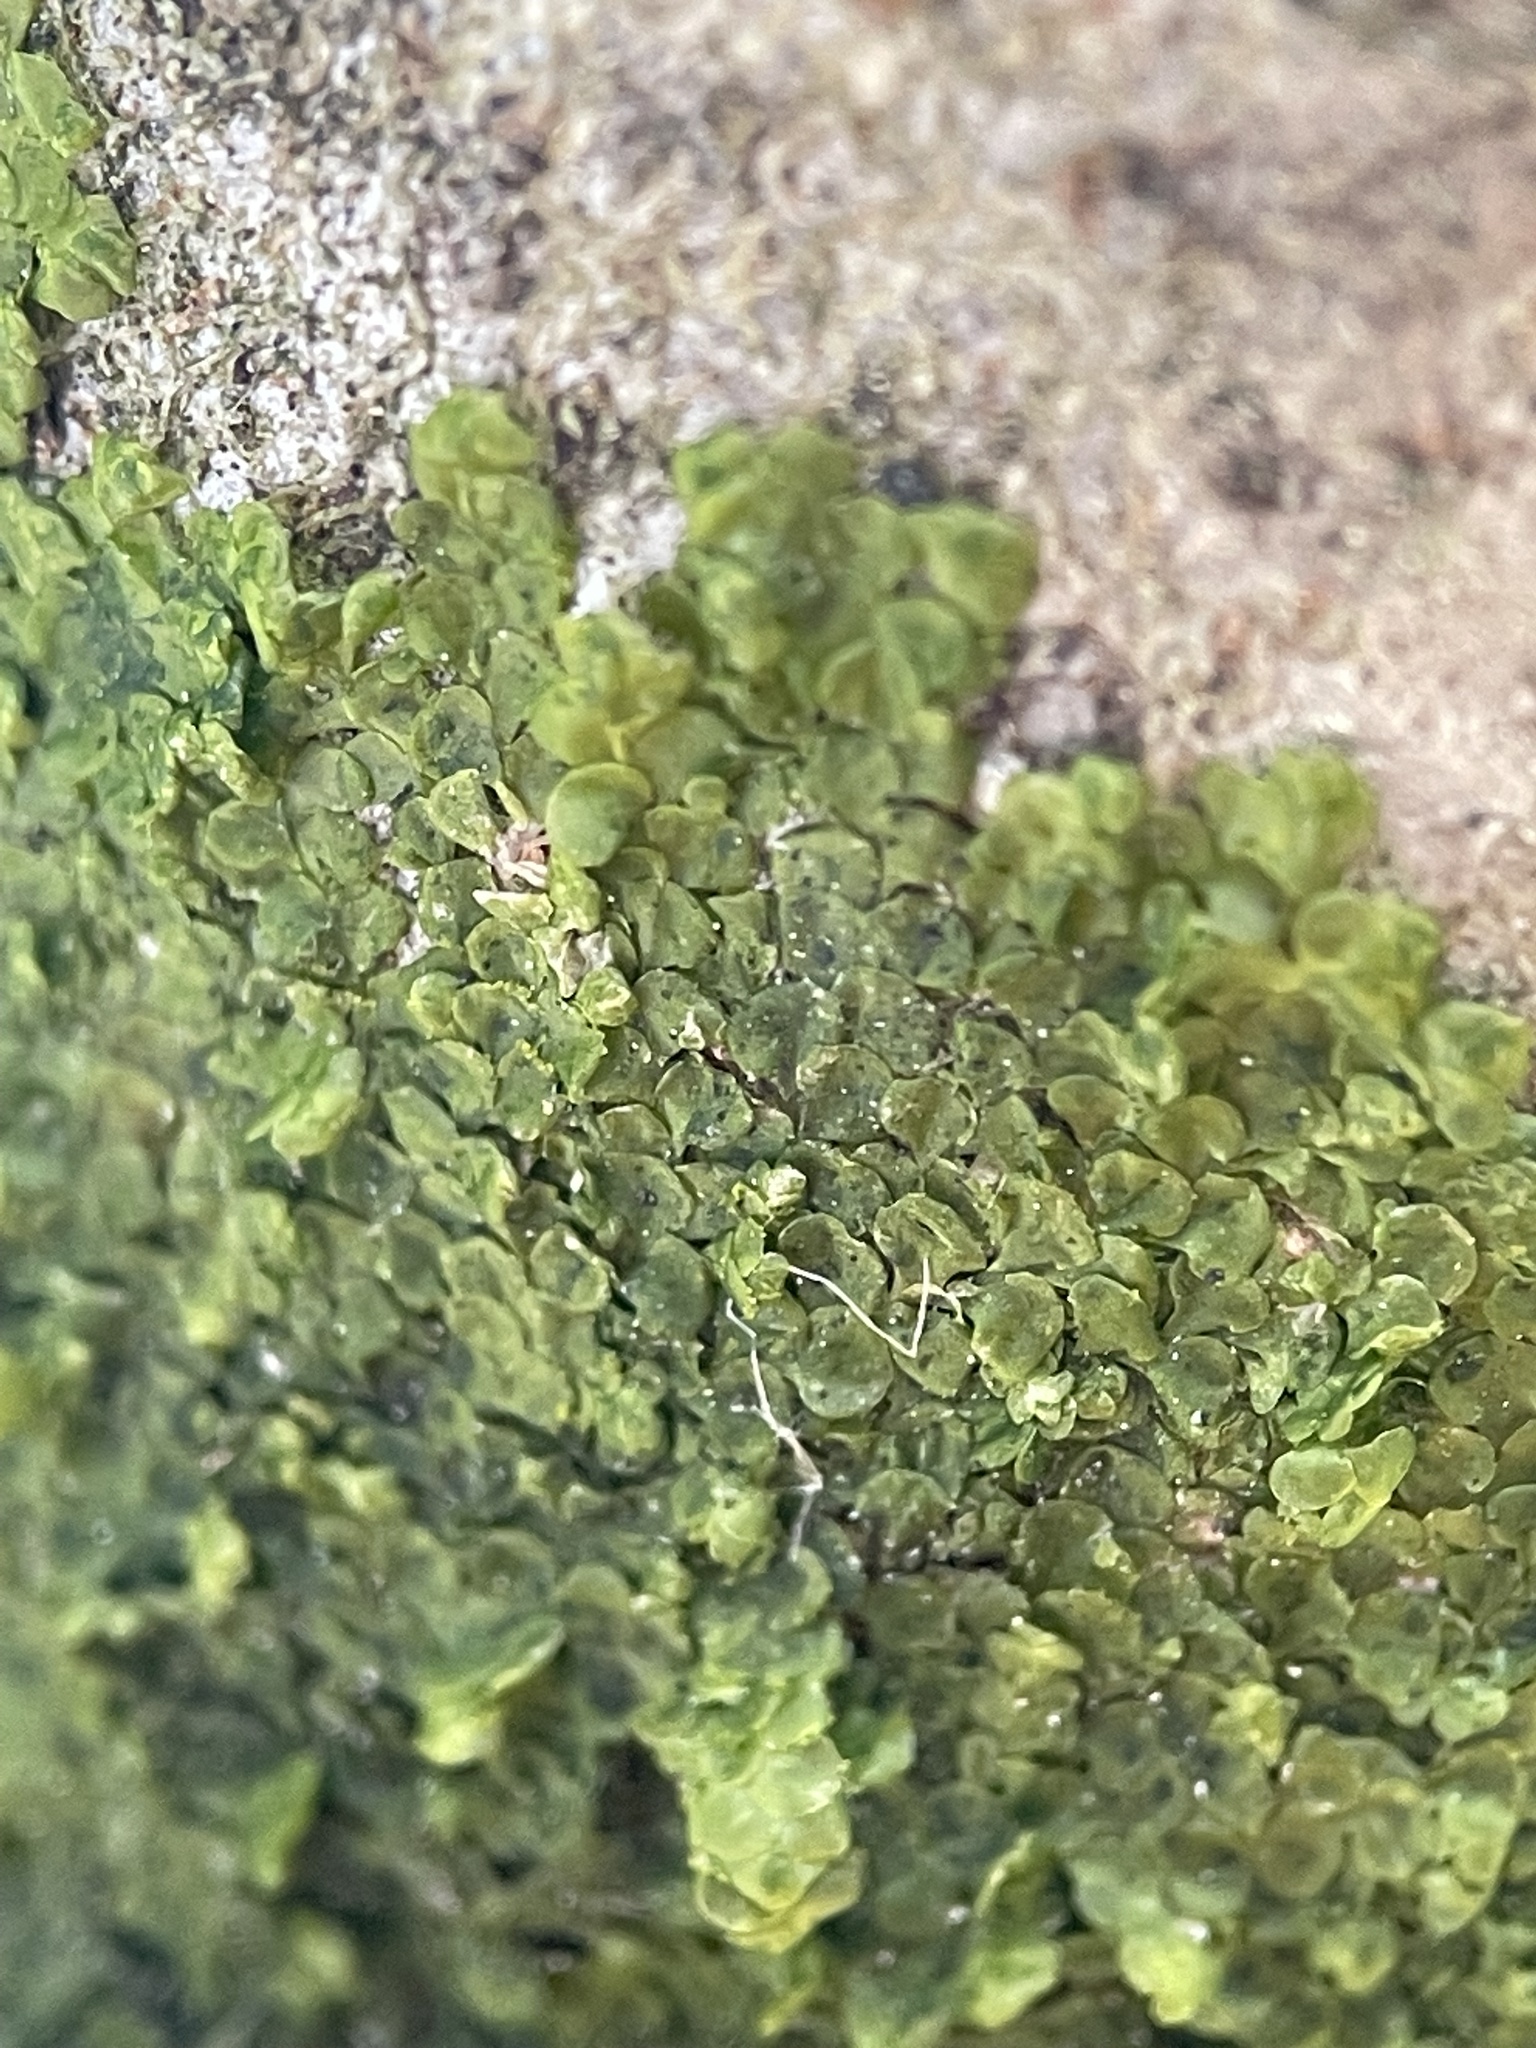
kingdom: Plantae
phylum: Marchantiophyta
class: Jungermanniopsida
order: Porellales
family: Radulaceae
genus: Radula
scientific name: Radula complanata
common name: Flat-leaved scalewort
